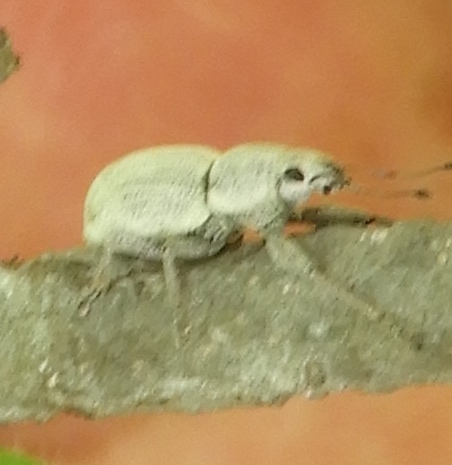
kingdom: Animalia
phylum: Arthropoda
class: Insecta
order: Coleoptera
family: Curculionidae
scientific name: Curculionidae
